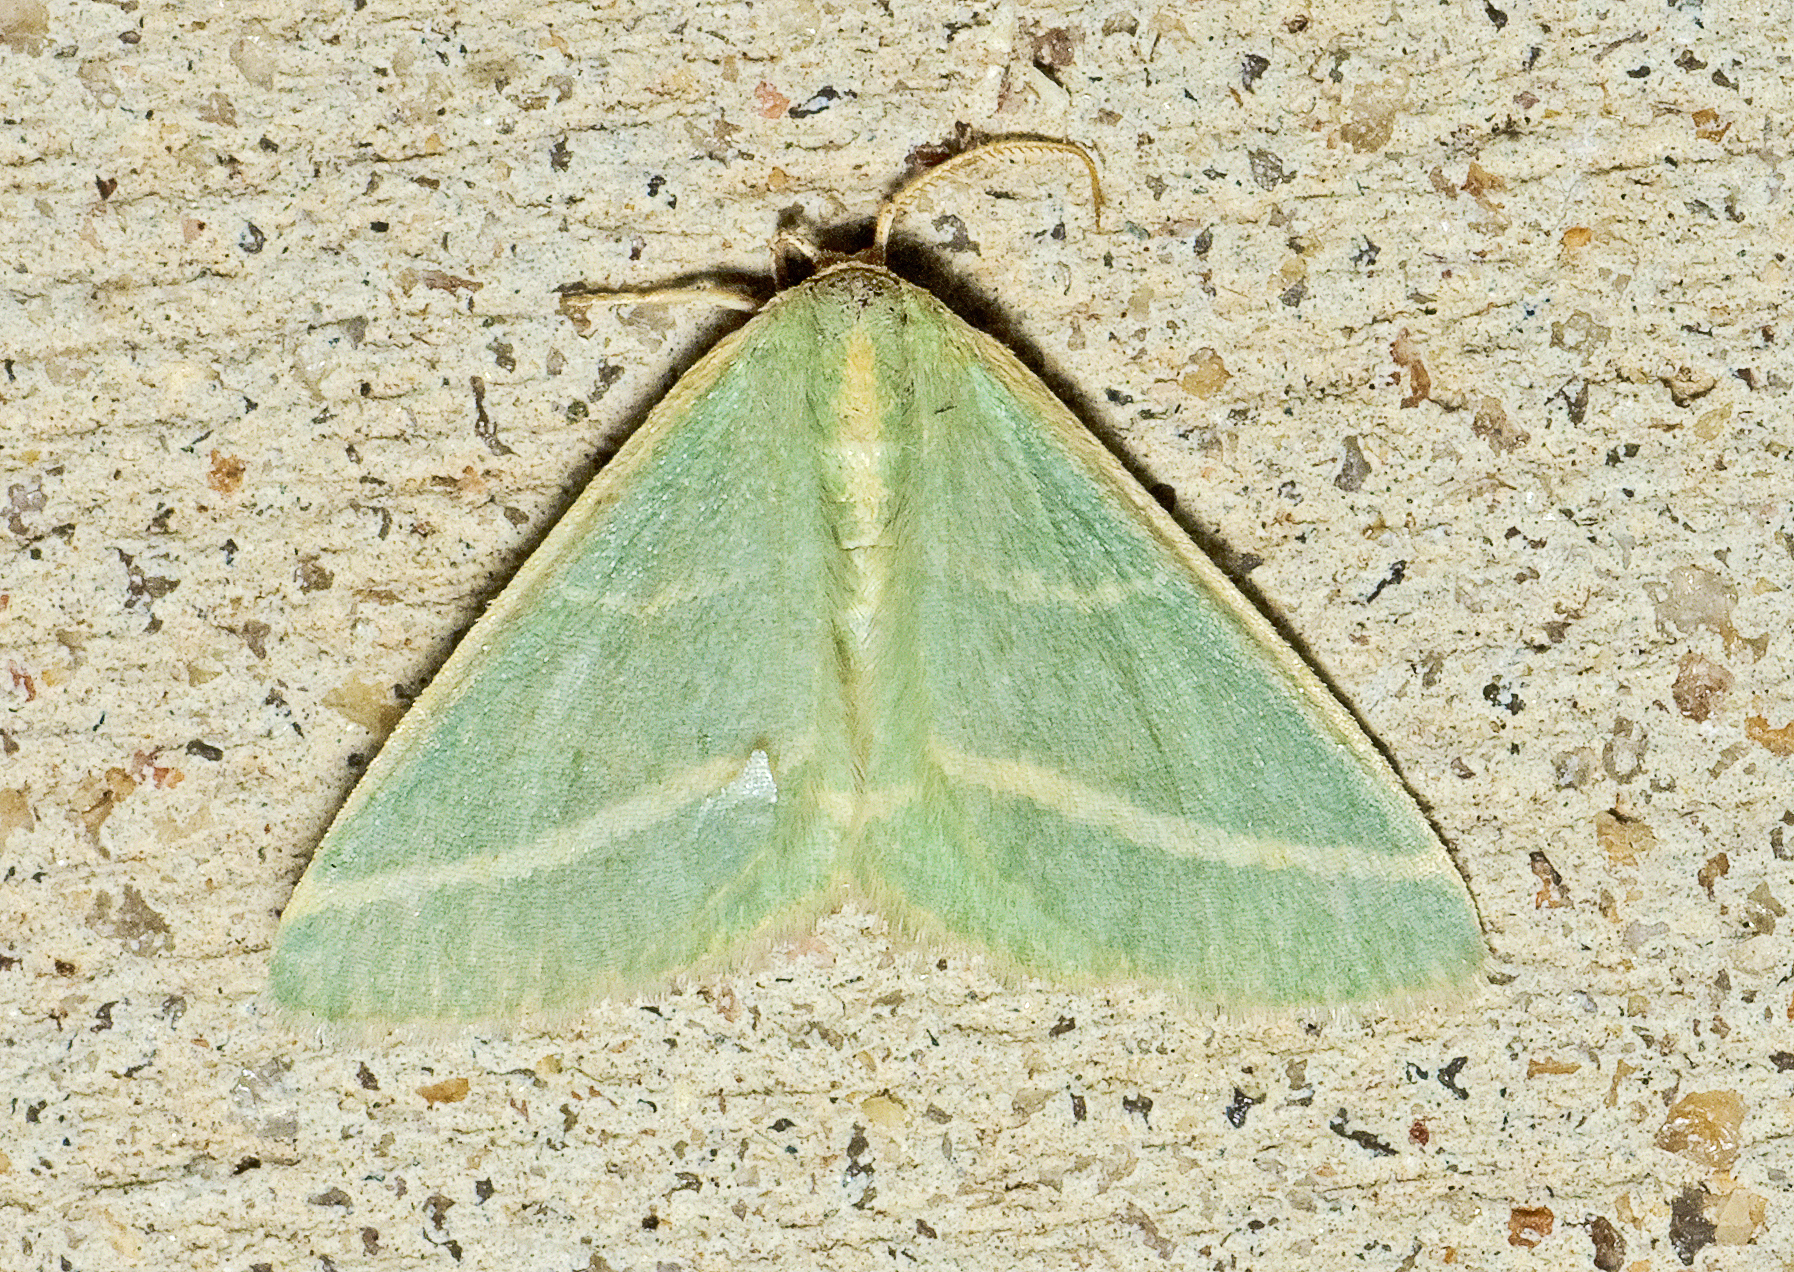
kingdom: Animalia
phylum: Arthropoda
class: Insecta
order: Lepidoptera
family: Geometridae
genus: Mixocera
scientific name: Mixocera latilineata
